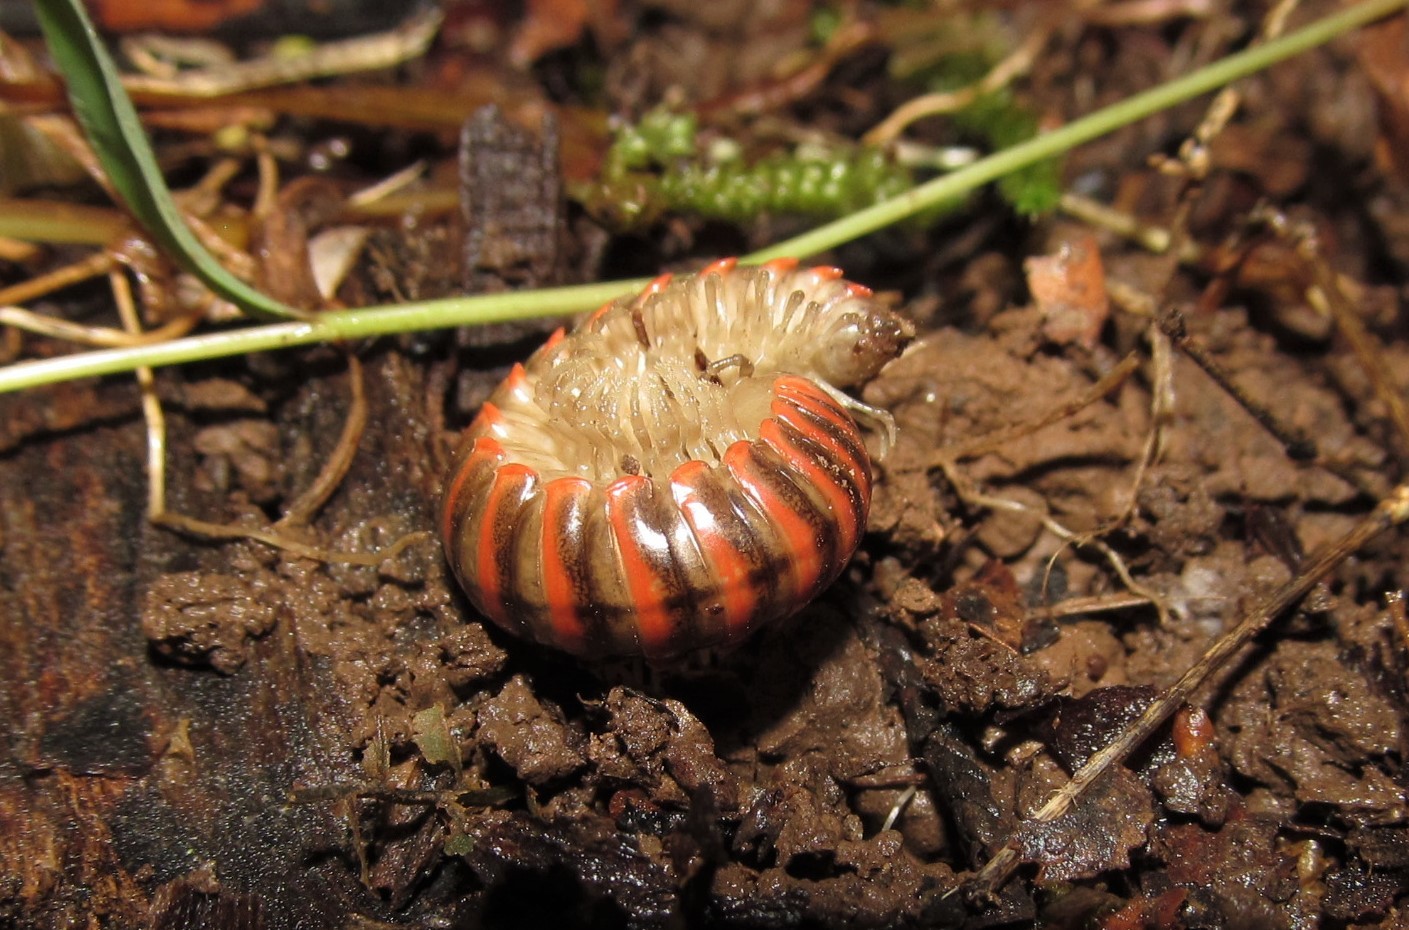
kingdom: Animalia
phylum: Arthropoda
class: Diplopoda
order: Polydesmida
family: Xystodesmidae
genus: Oenomaea
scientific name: Oenomaea pulchella
